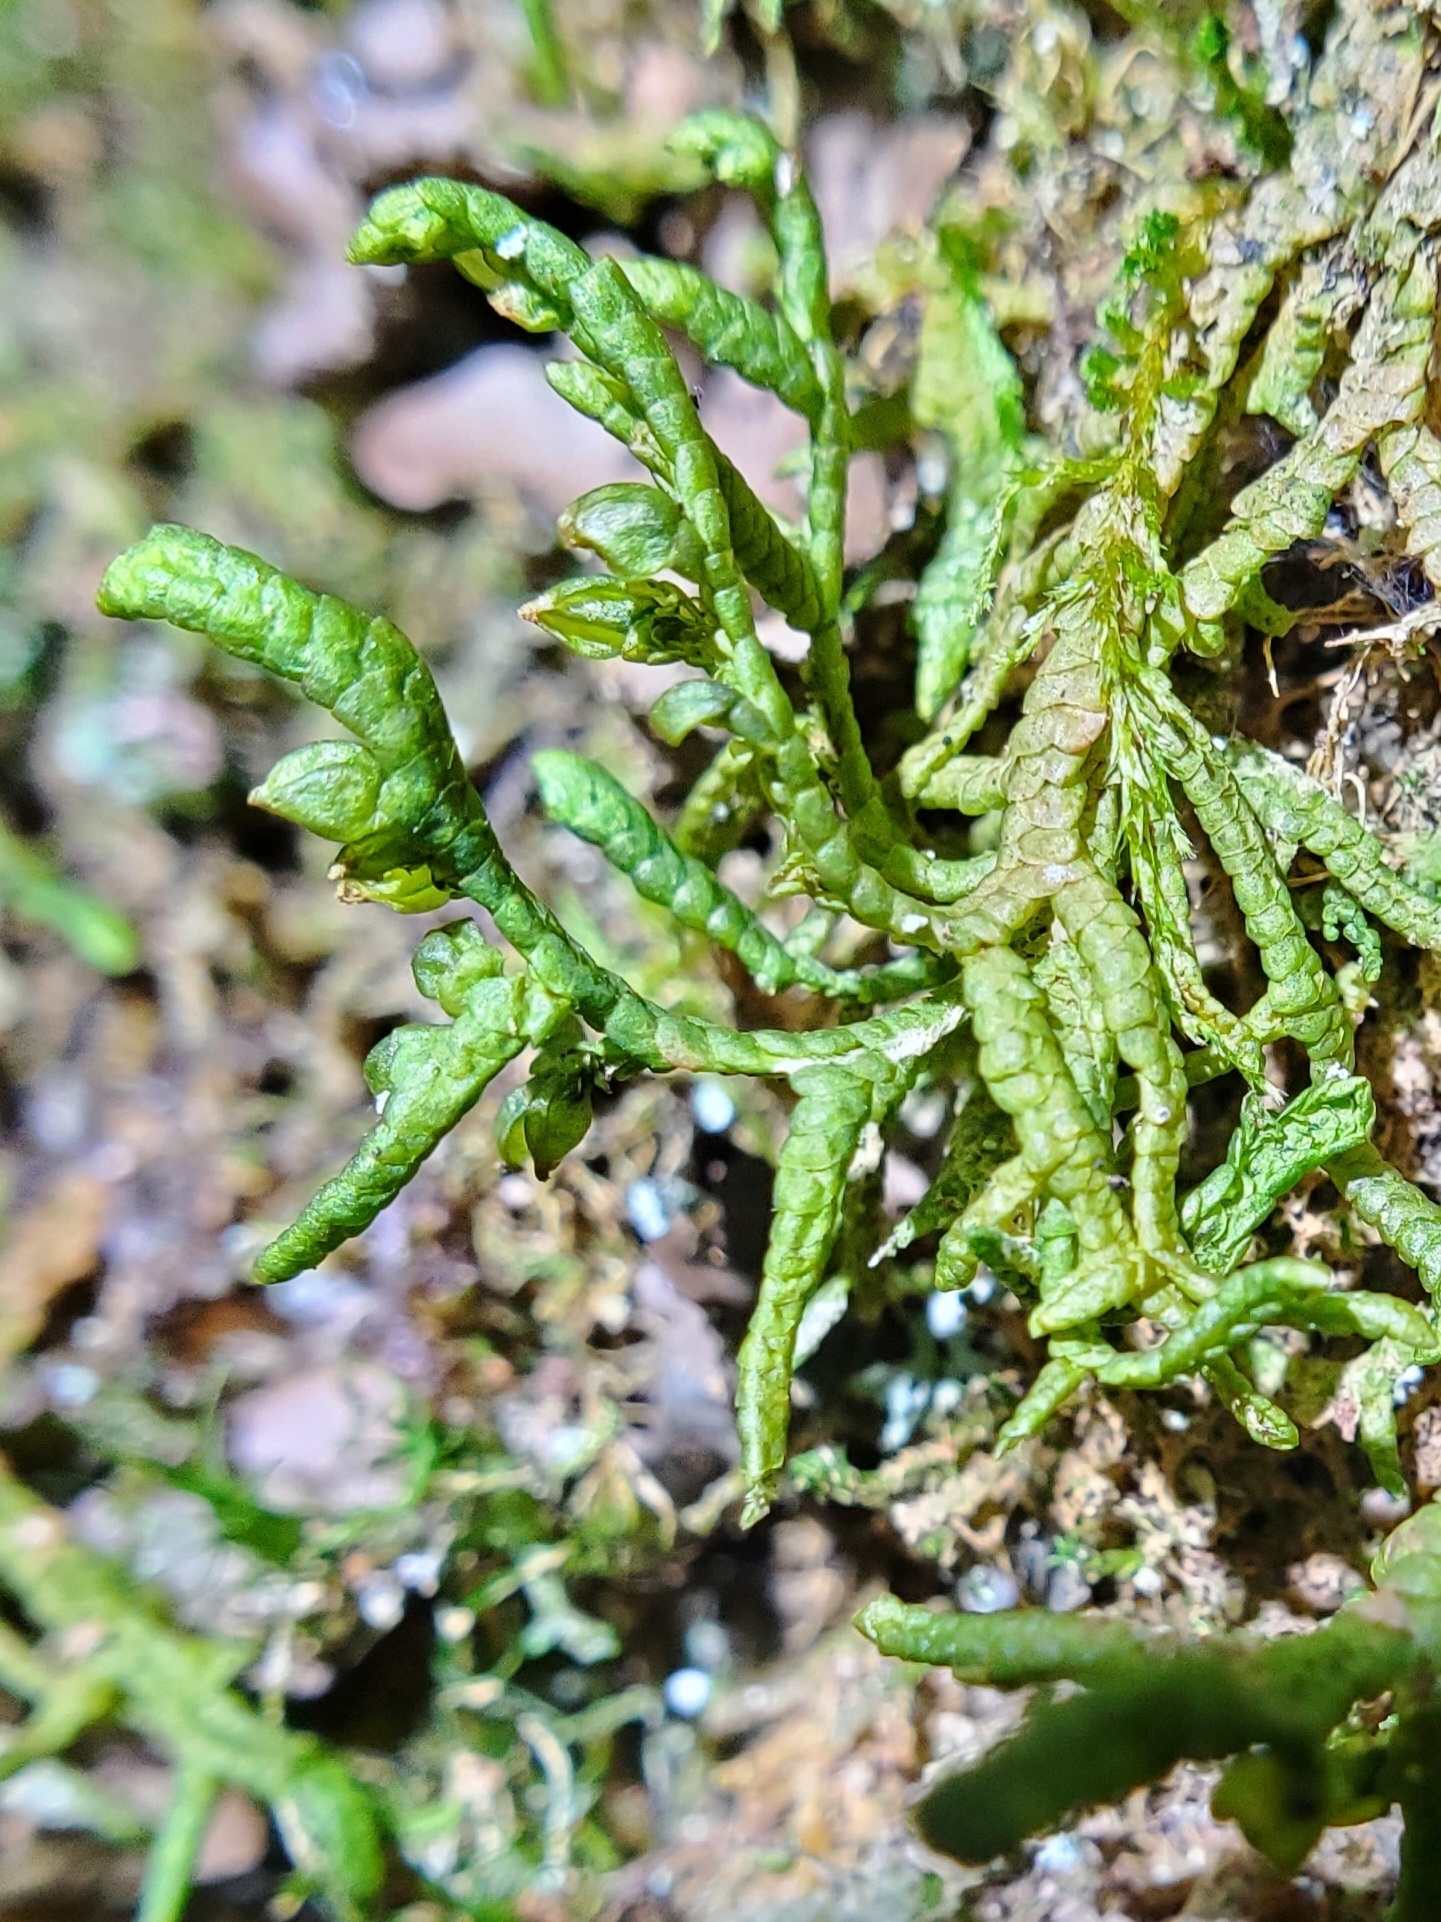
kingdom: Plantae
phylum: Marchantiophyta
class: Jungermanniopsida
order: Porellales
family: Porellaceae
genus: Porella
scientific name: Porella platyphylla
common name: Wall scalewort
